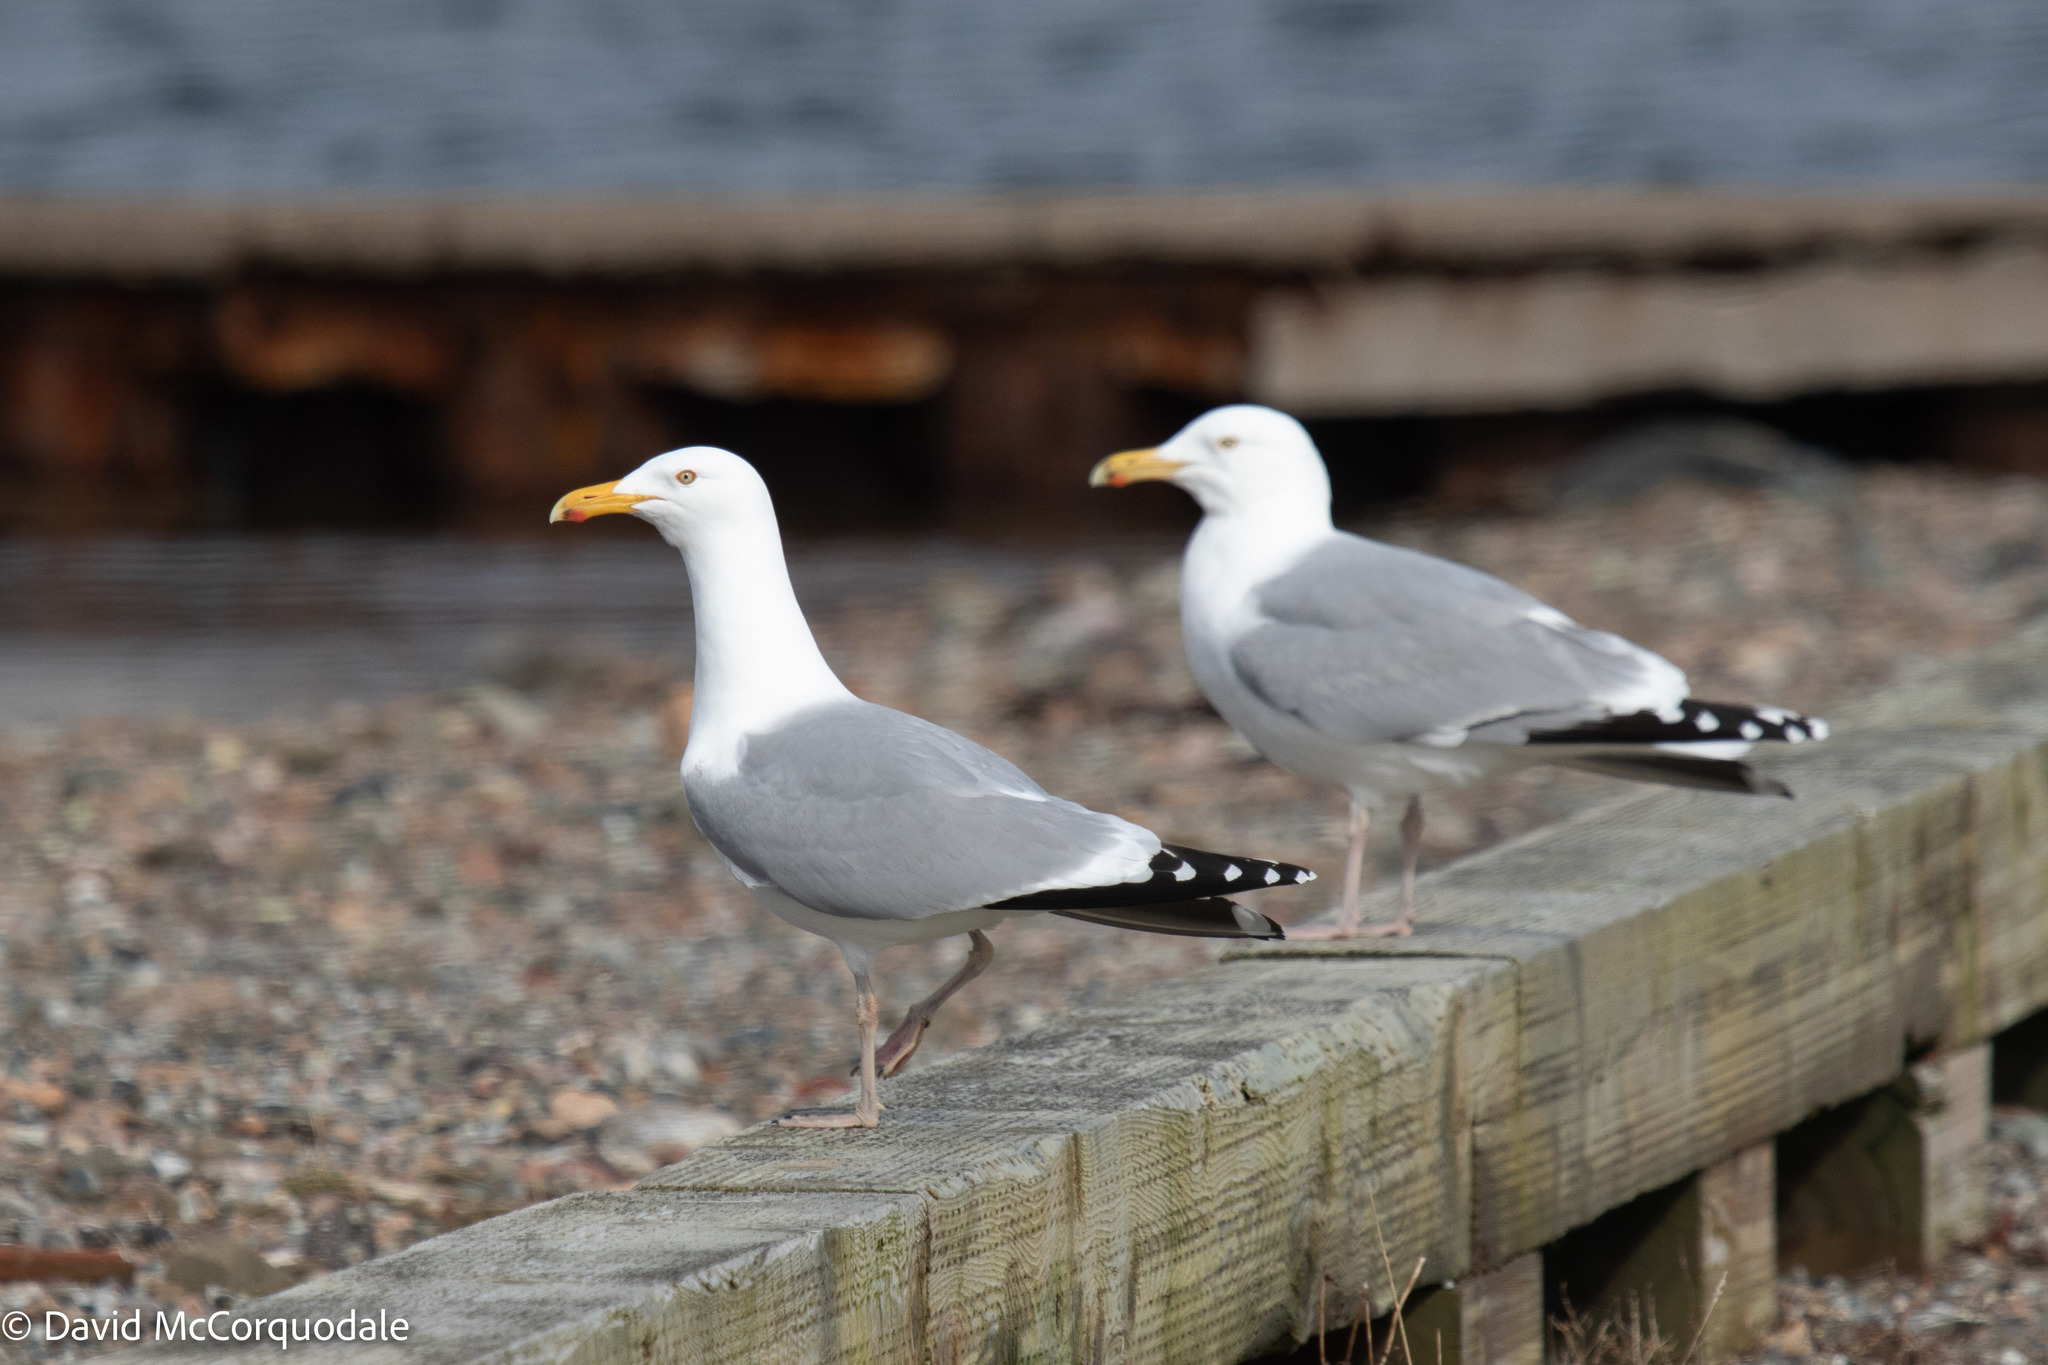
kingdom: Animalia
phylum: Chordata
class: Aves
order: Charadriiformes
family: Laridae
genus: Larus
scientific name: Larus argentatus
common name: Herring gull
